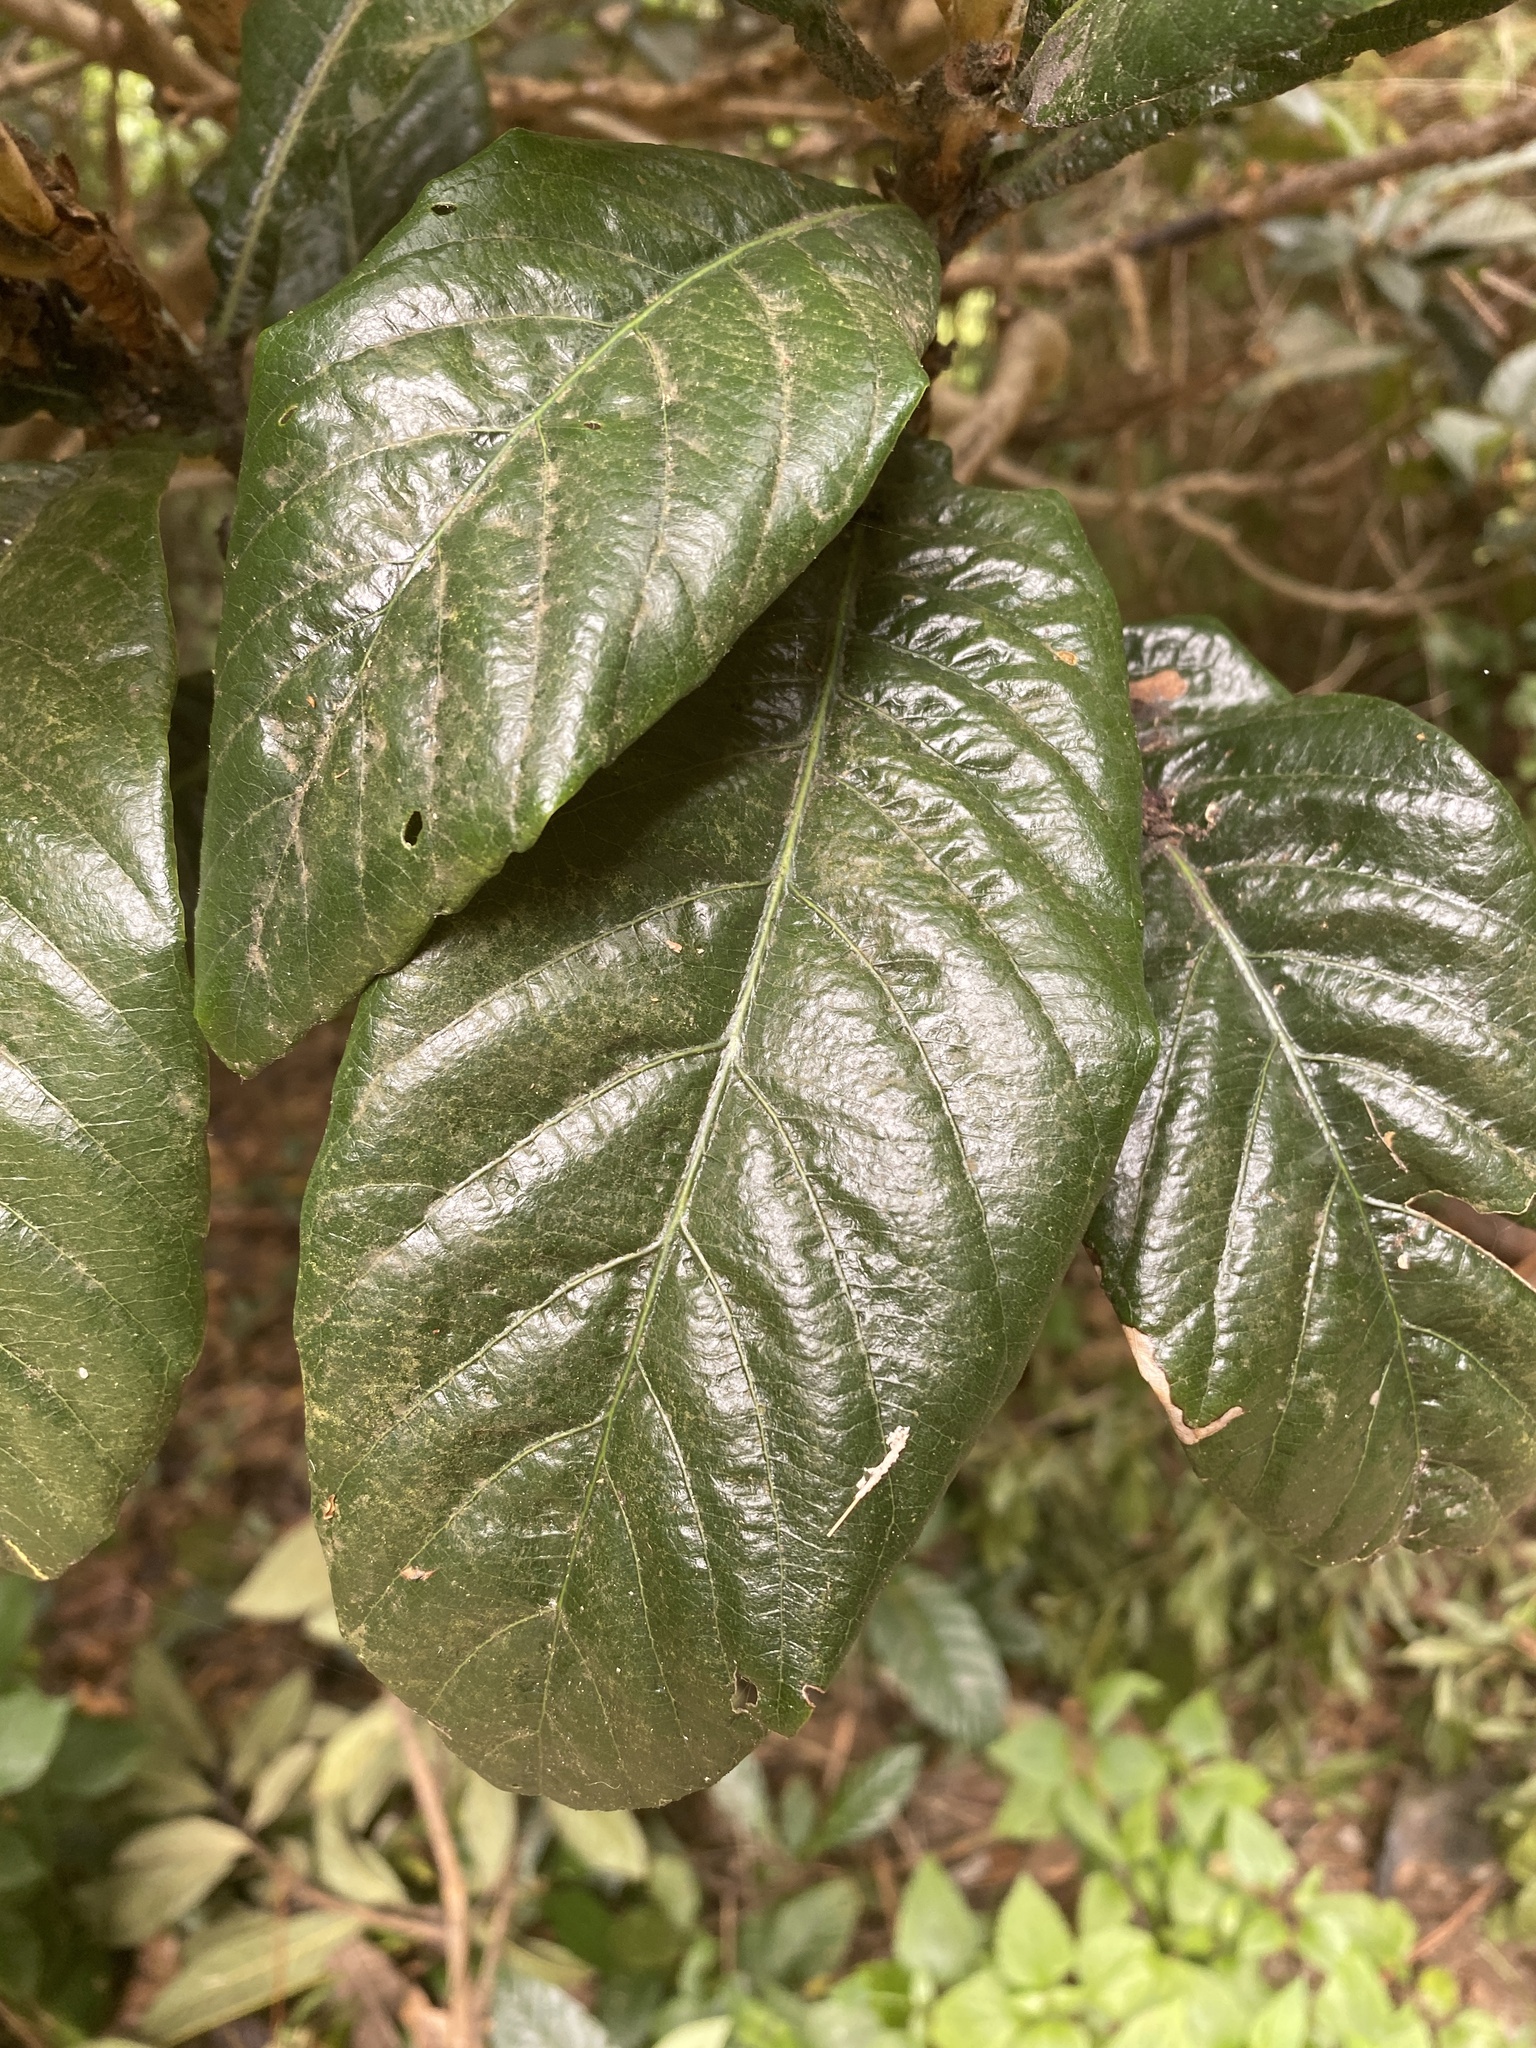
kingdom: Plantae
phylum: Tracheophyta
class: Magnoliopsida
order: Rosales
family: Rosaceae
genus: Rhaphiolepis
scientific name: Rhaphiolepis bibas
